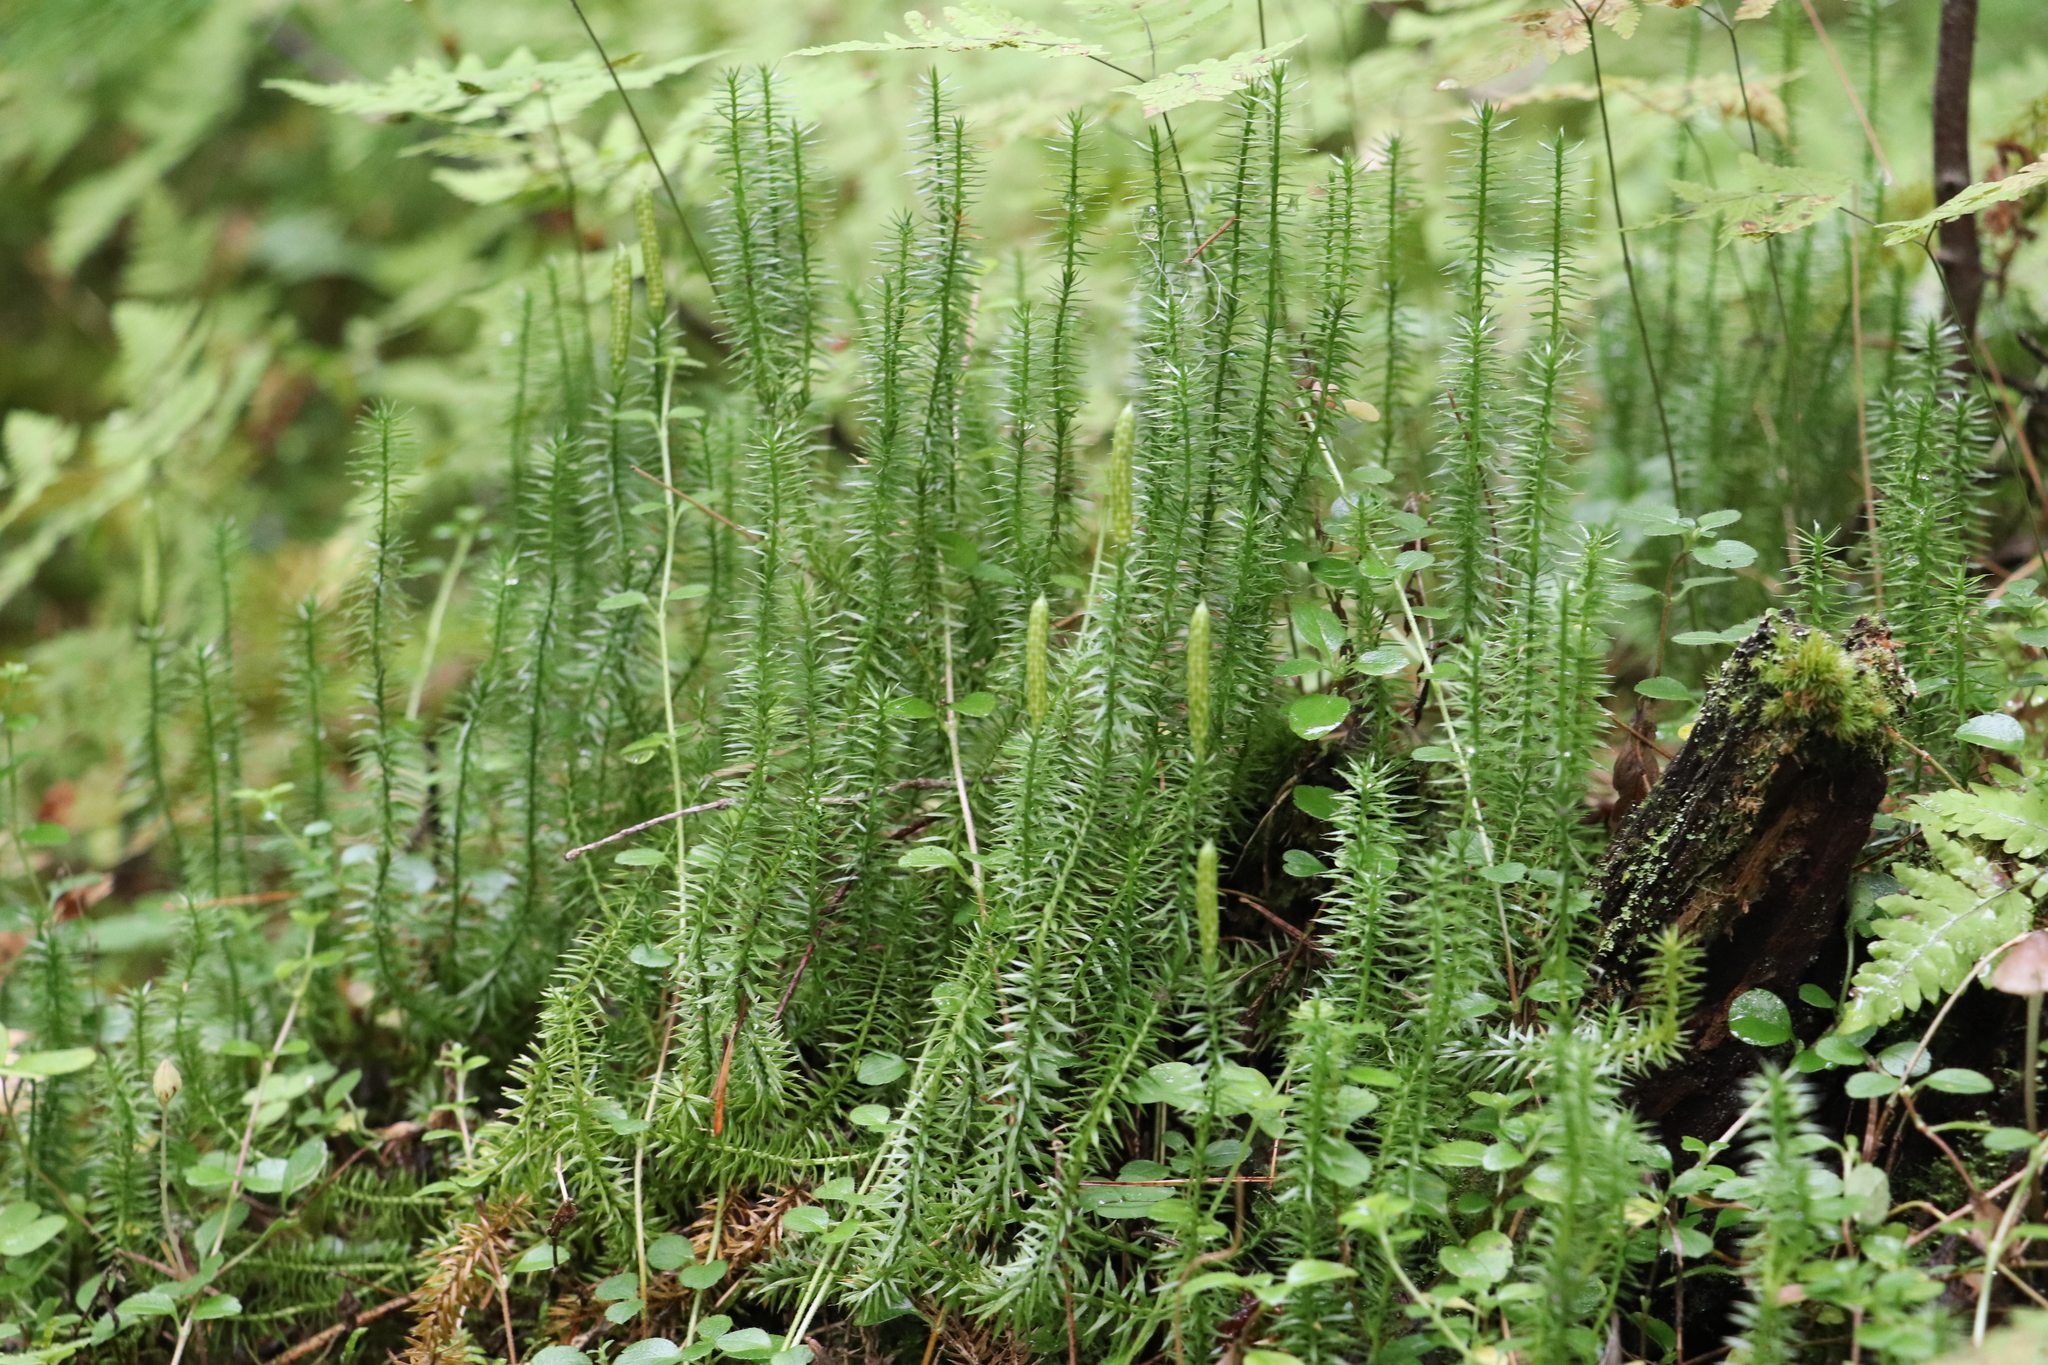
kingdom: Plantae
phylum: Tracheophyta
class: Lycopodiopsida
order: Lycopodiales
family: Lycopodiaceae
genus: Spinulum
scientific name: Spinulum annotinum
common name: Interrupted club-moss
